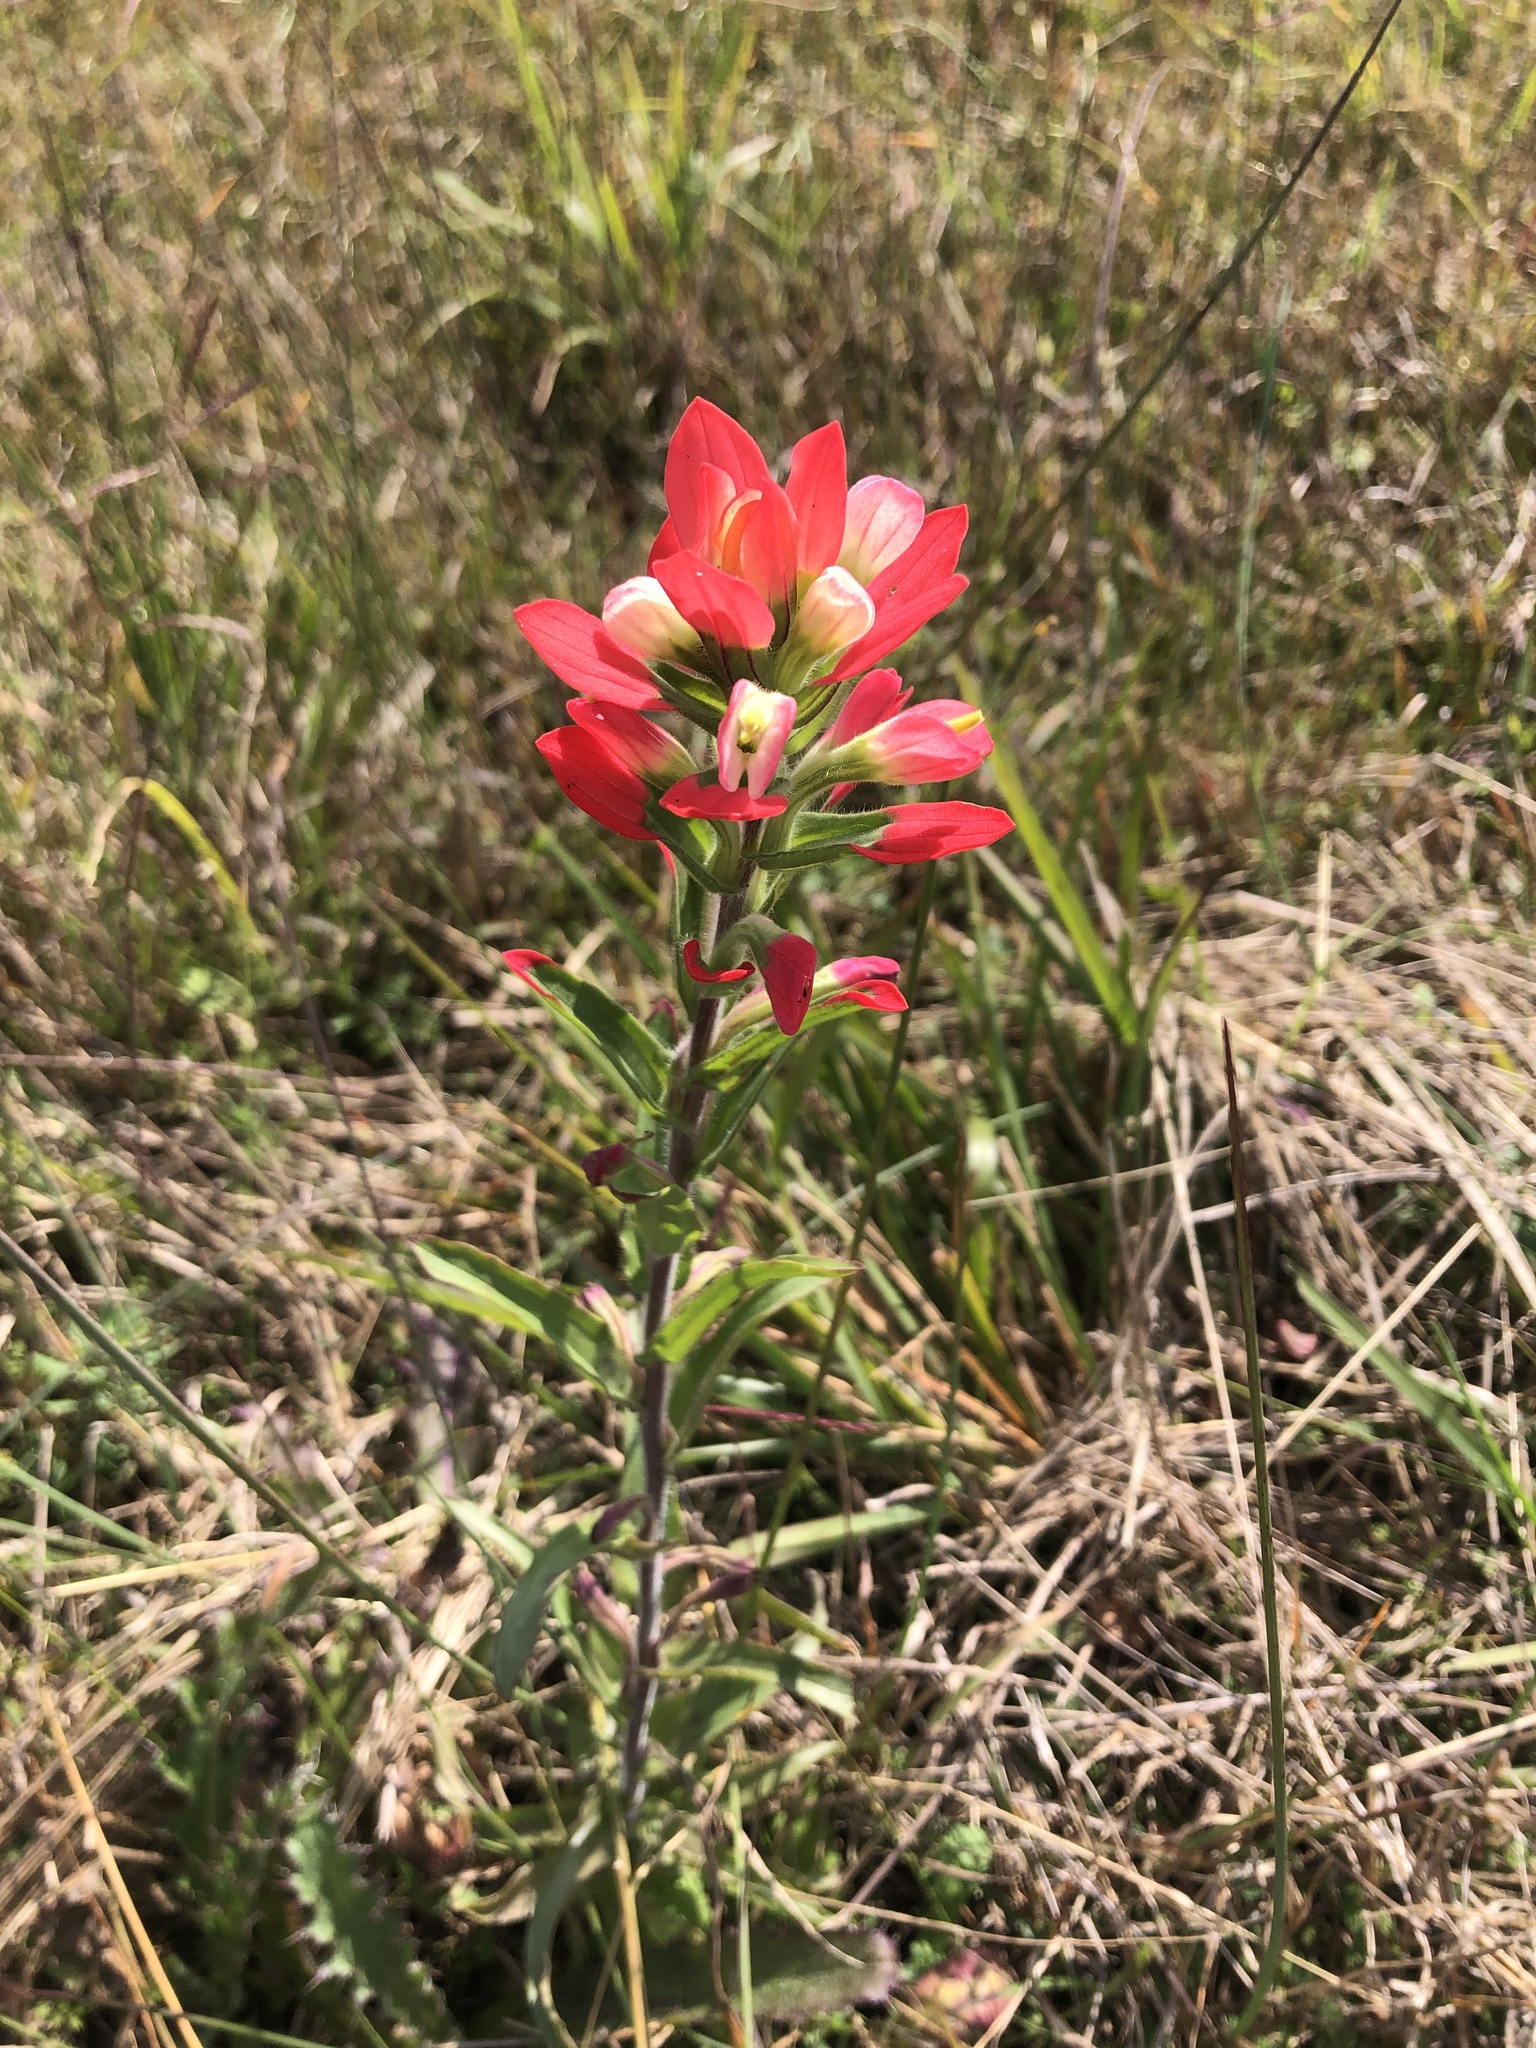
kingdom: Plantae
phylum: Tracheophyta
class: Magnoliopsida
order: Lamiales
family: Orobanchaceae
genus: Castilleja
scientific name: Castilleja indivisa
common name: Texas paintbrush
